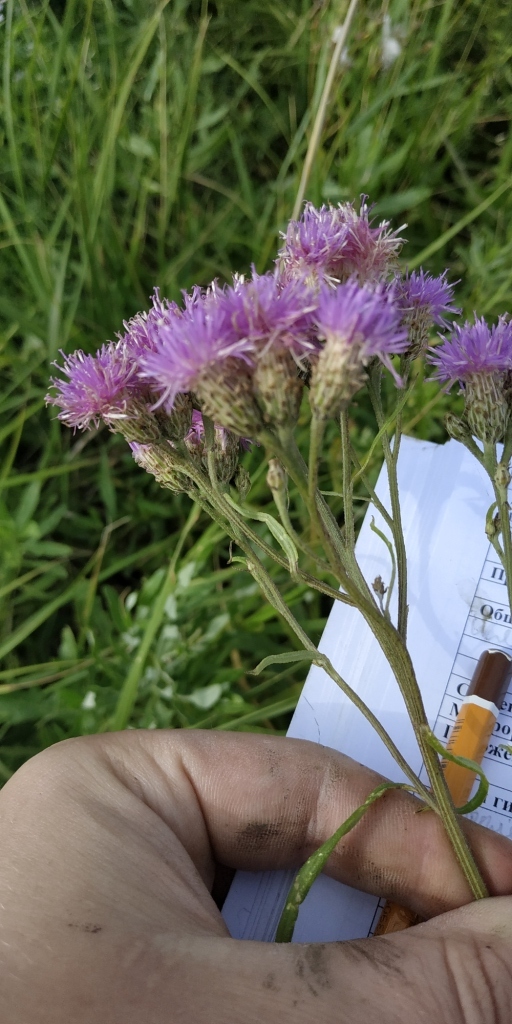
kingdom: Plantae
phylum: Tracheophyta
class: Magnoliopsida
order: Asterales
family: Asteraceae
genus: Saussurea
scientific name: Saussurea amara
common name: Alberta sawwort
